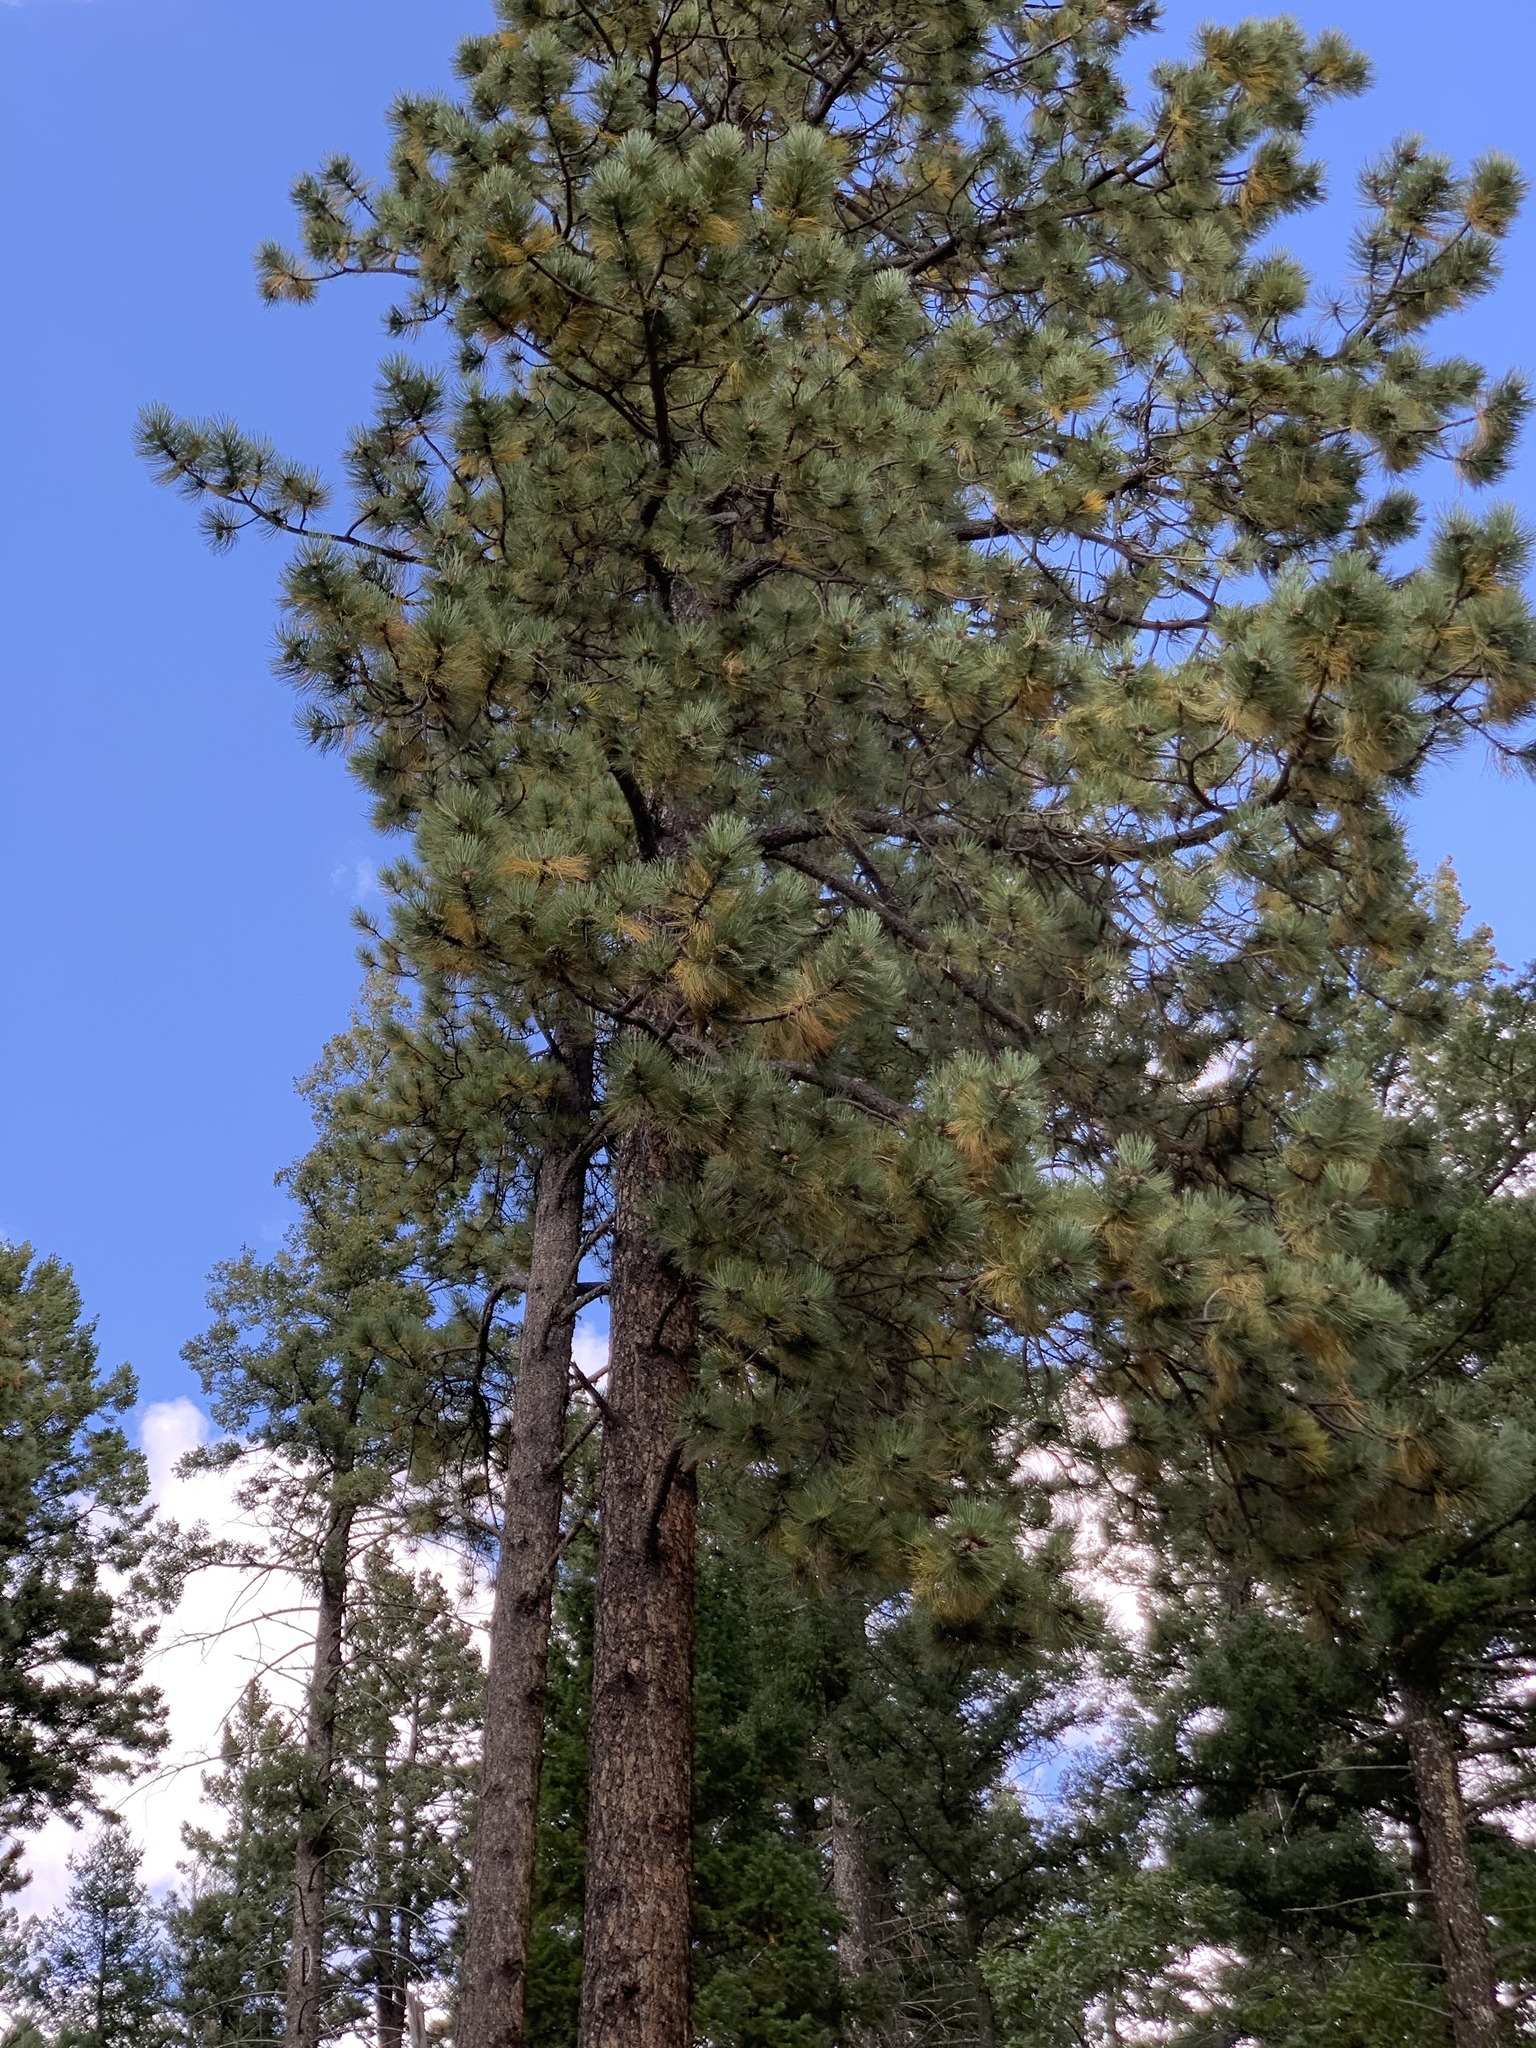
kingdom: Plantae
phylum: Tracheophyta
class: Pinopsida
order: Pinales
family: Pinaceae
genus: Pinus
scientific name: Pinus ponderosa
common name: Western yellow-pine
